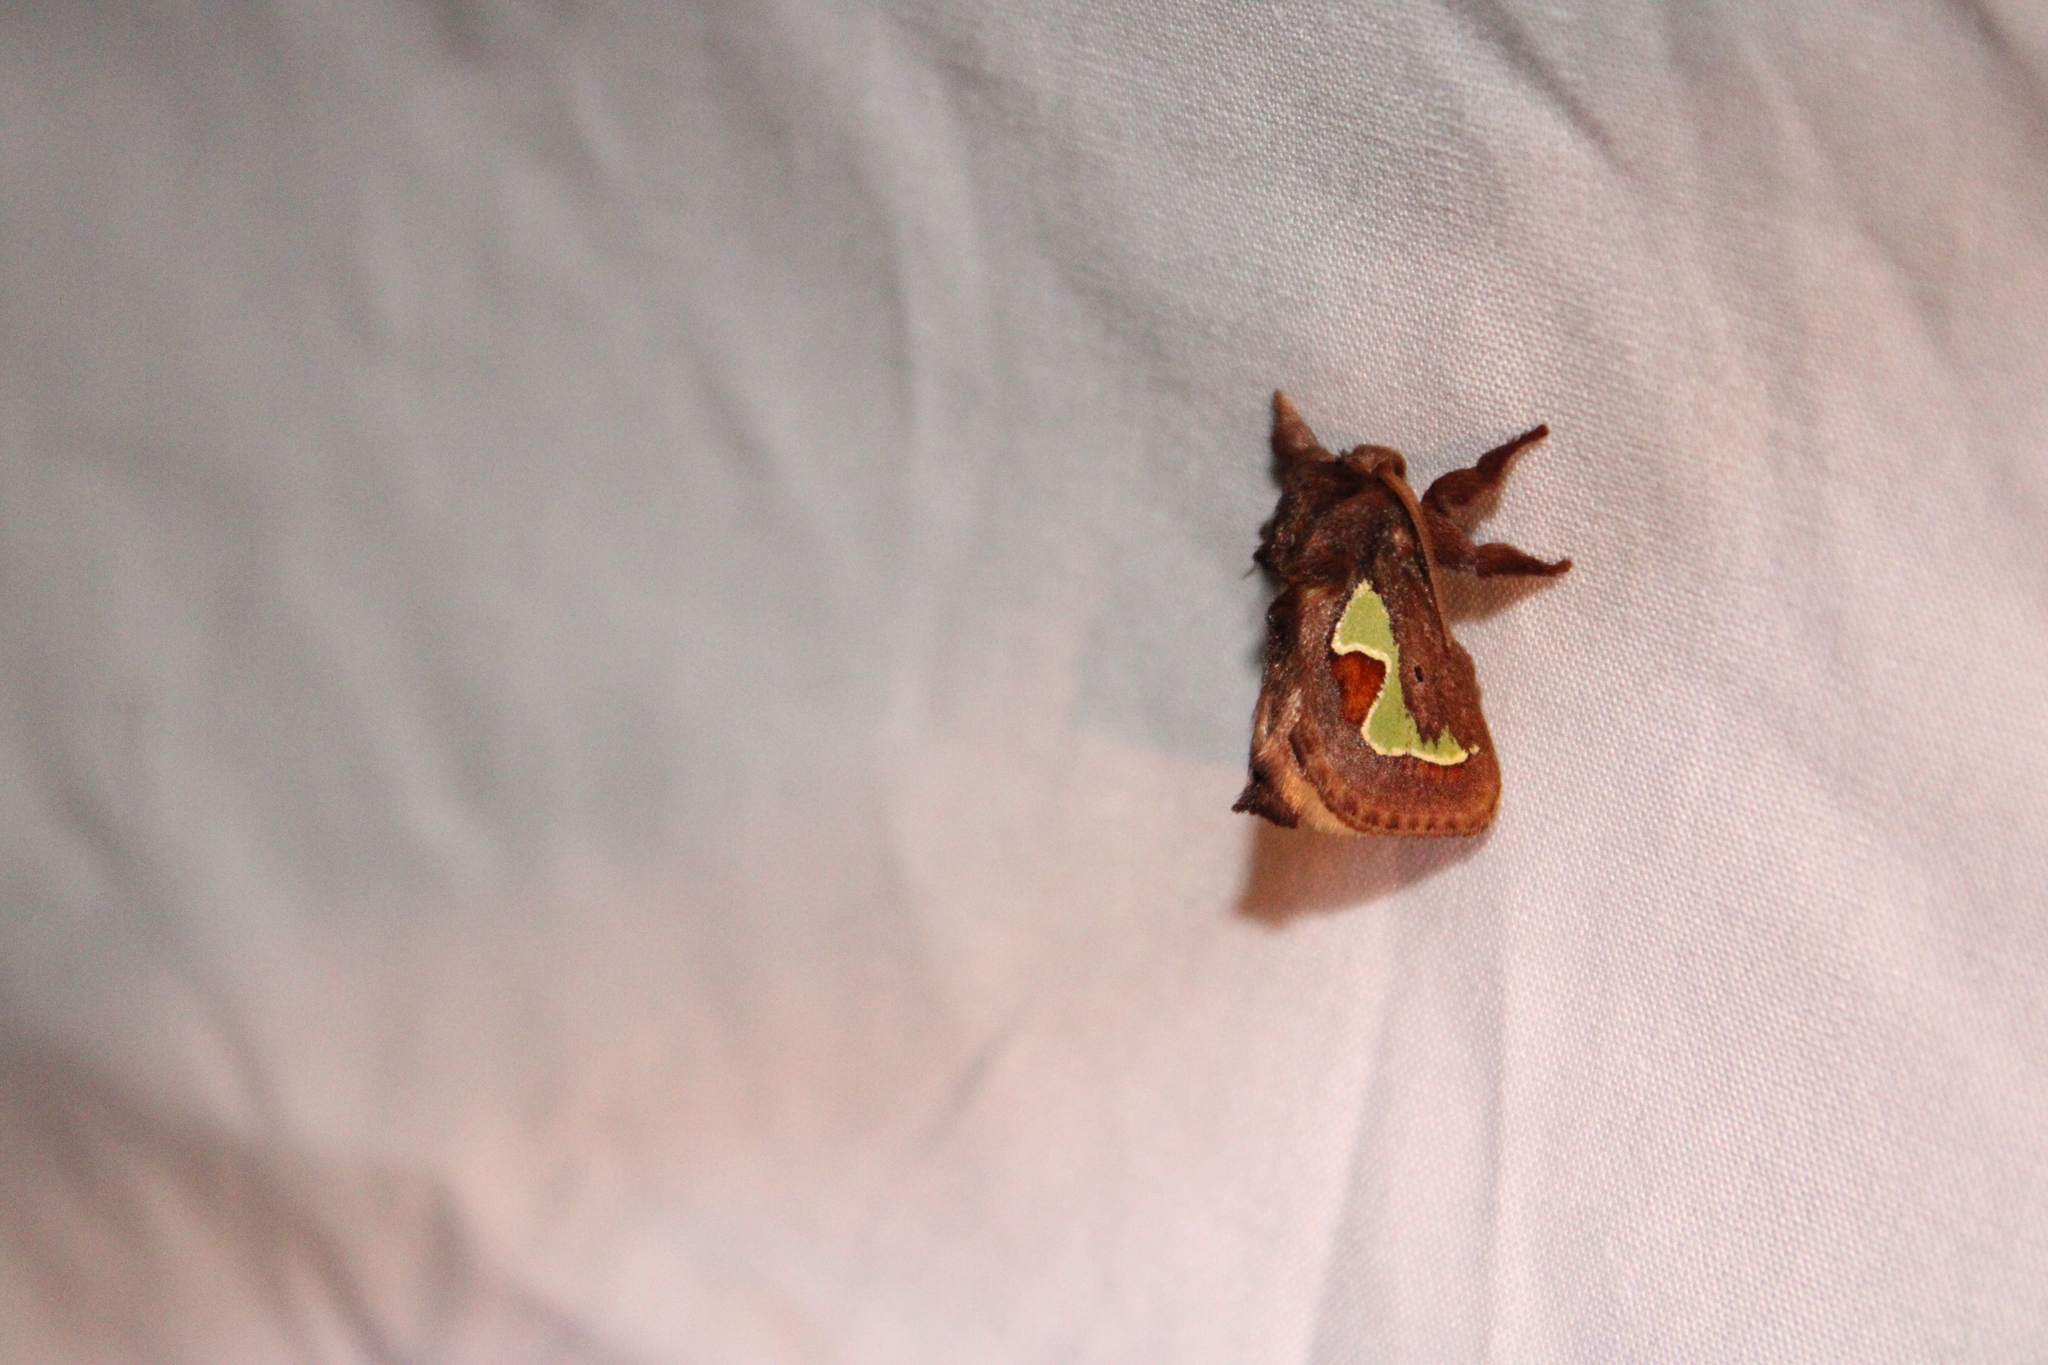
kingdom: Animalia
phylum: Arthropoda
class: Insecta
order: Lepidoptera
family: Limacodidae
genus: Euclea
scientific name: Euclea delphinii
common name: Spiny oak-slug moth
